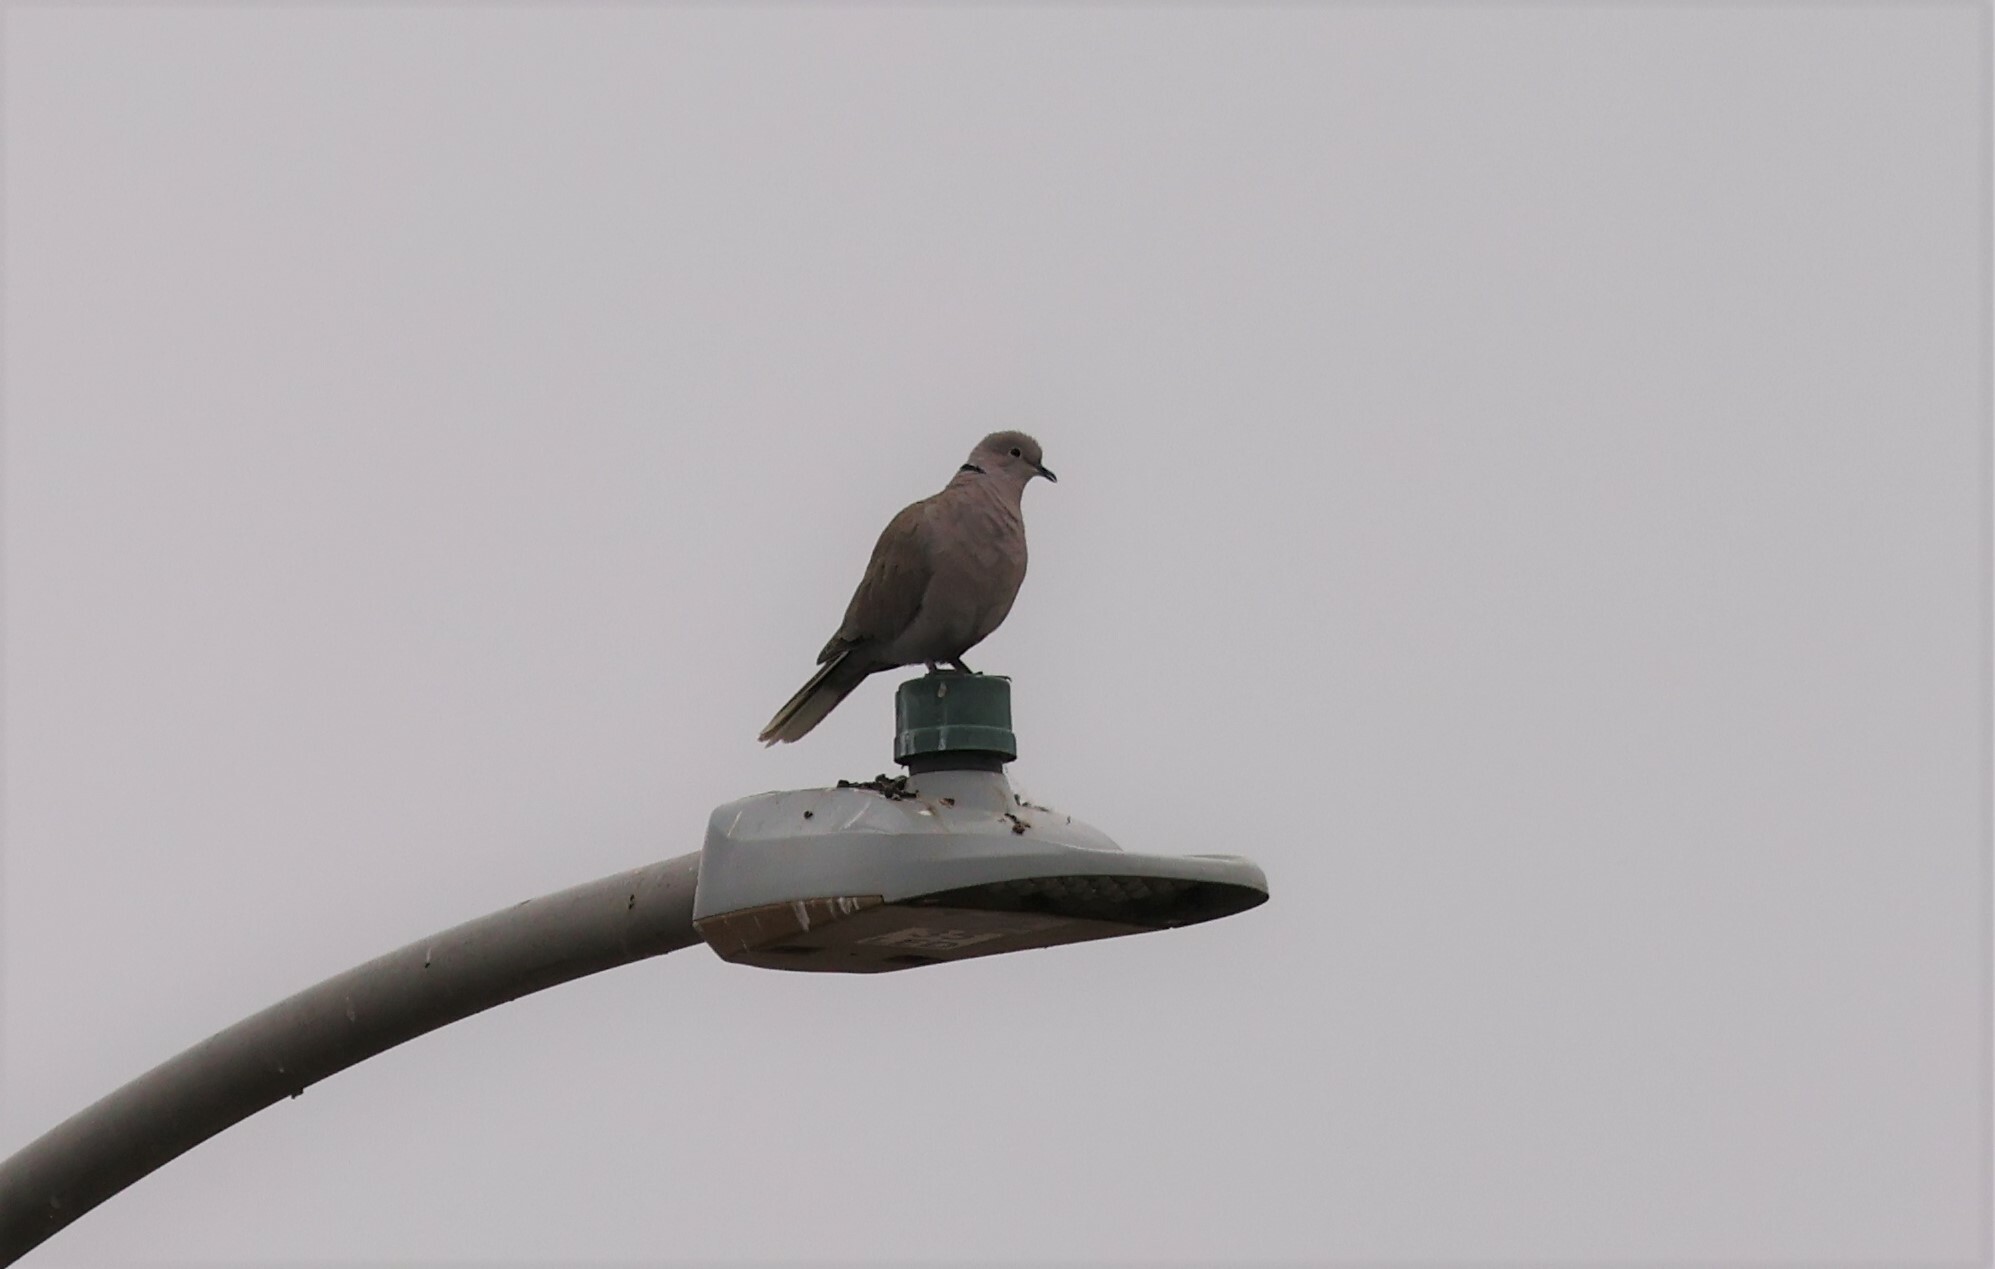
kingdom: Animalia
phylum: Chordata
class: Aves
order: Columbiformes
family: Columbidae
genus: Streptopelia
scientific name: Streptopelia decaocto
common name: Eurasian collared dove
